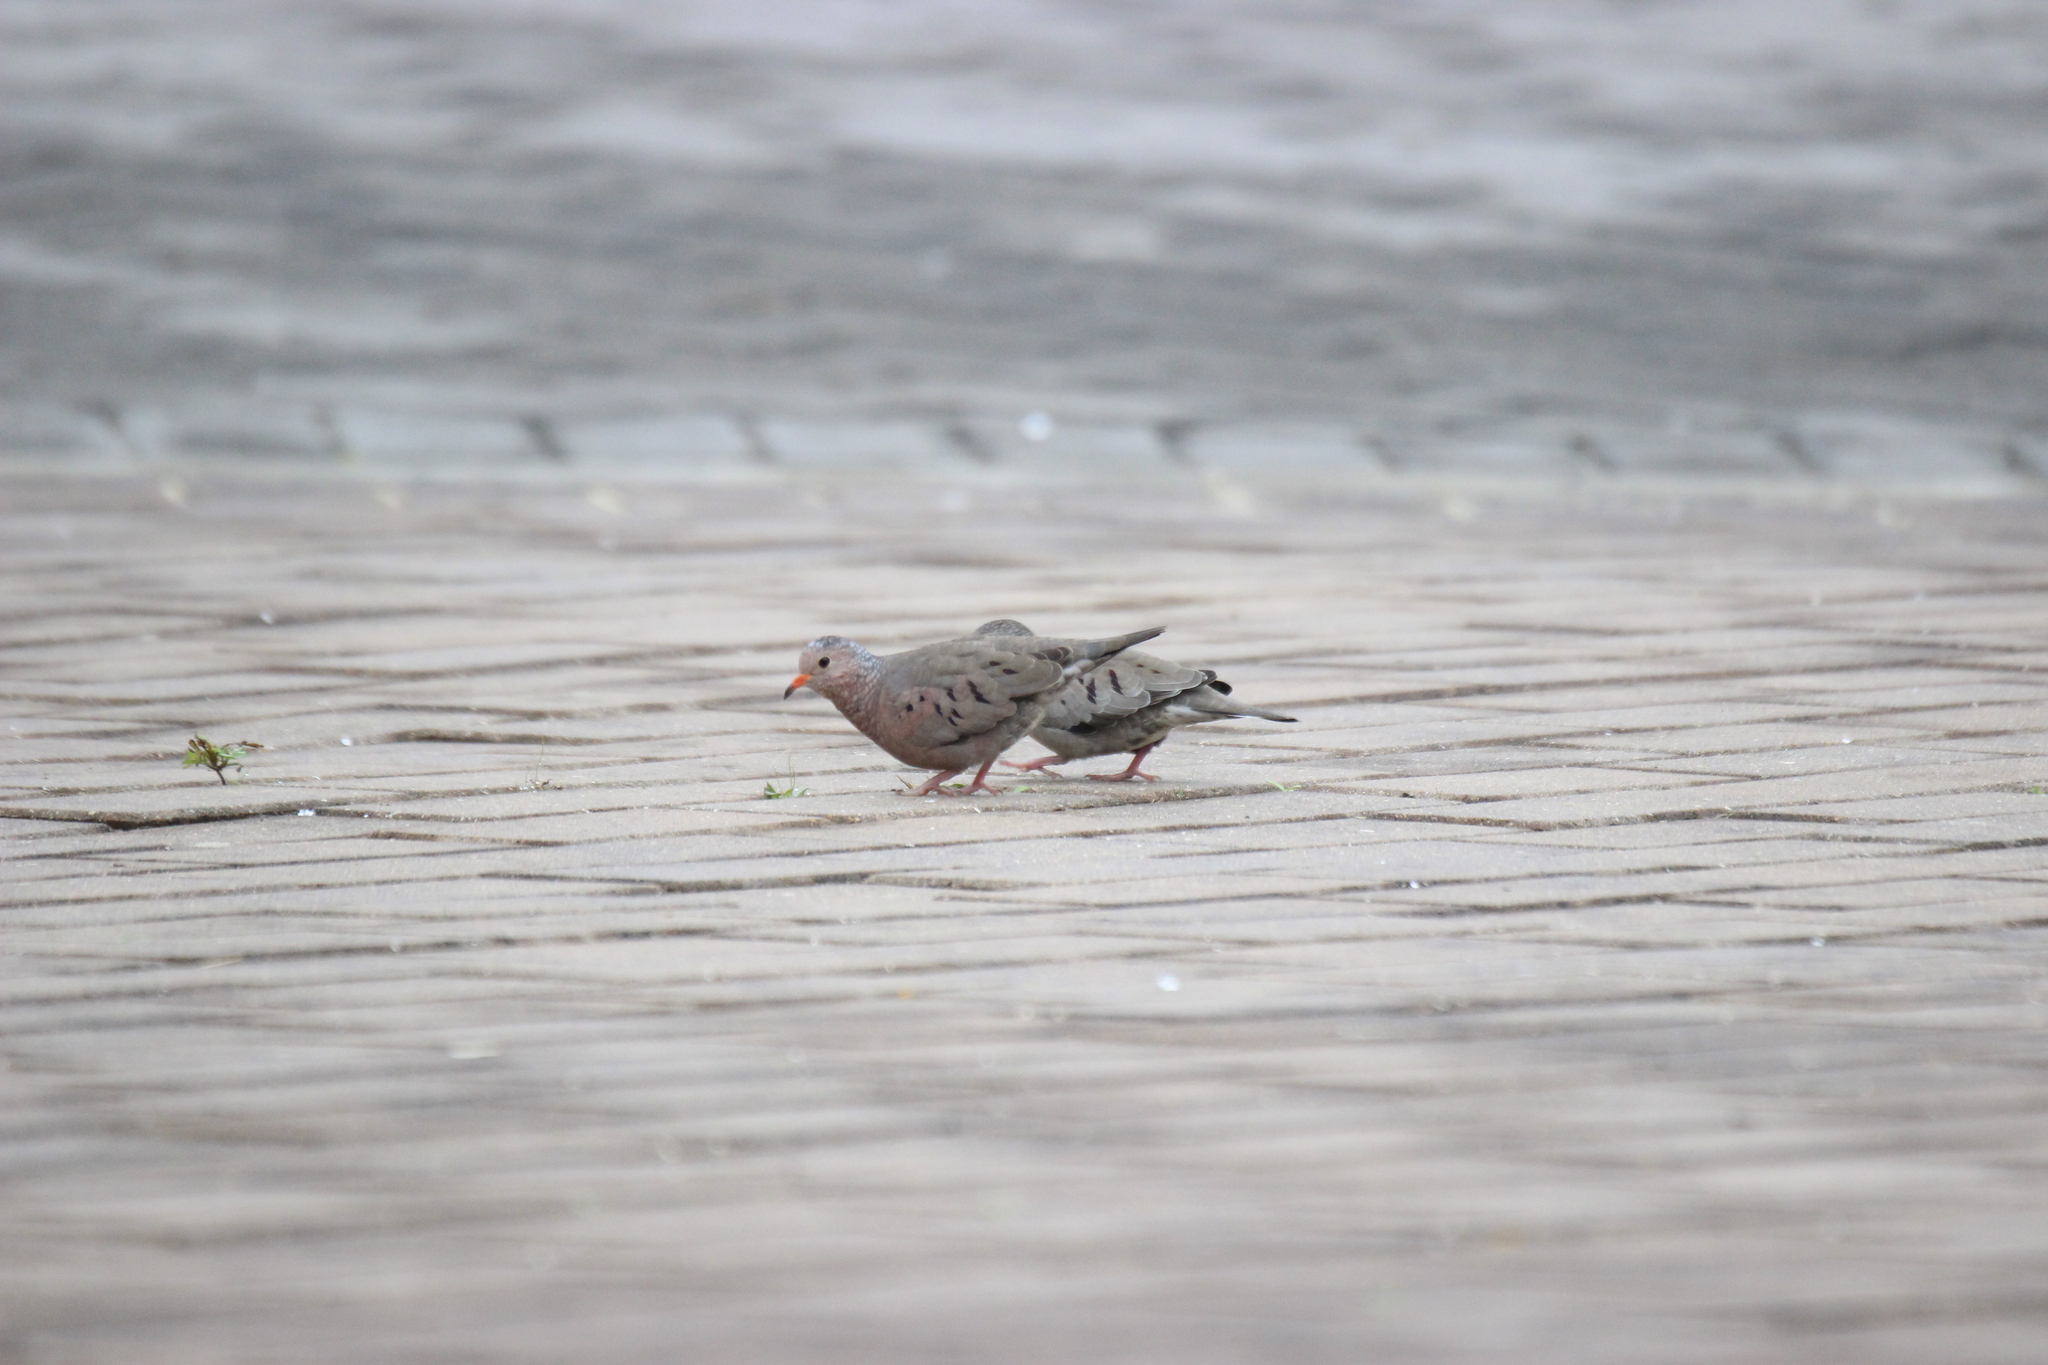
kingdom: Animalia
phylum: Chordata
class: Aves
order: Columbiformes
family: Columbidae
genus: Columbina
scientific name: Columbina passerina
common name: Common ground-dove
